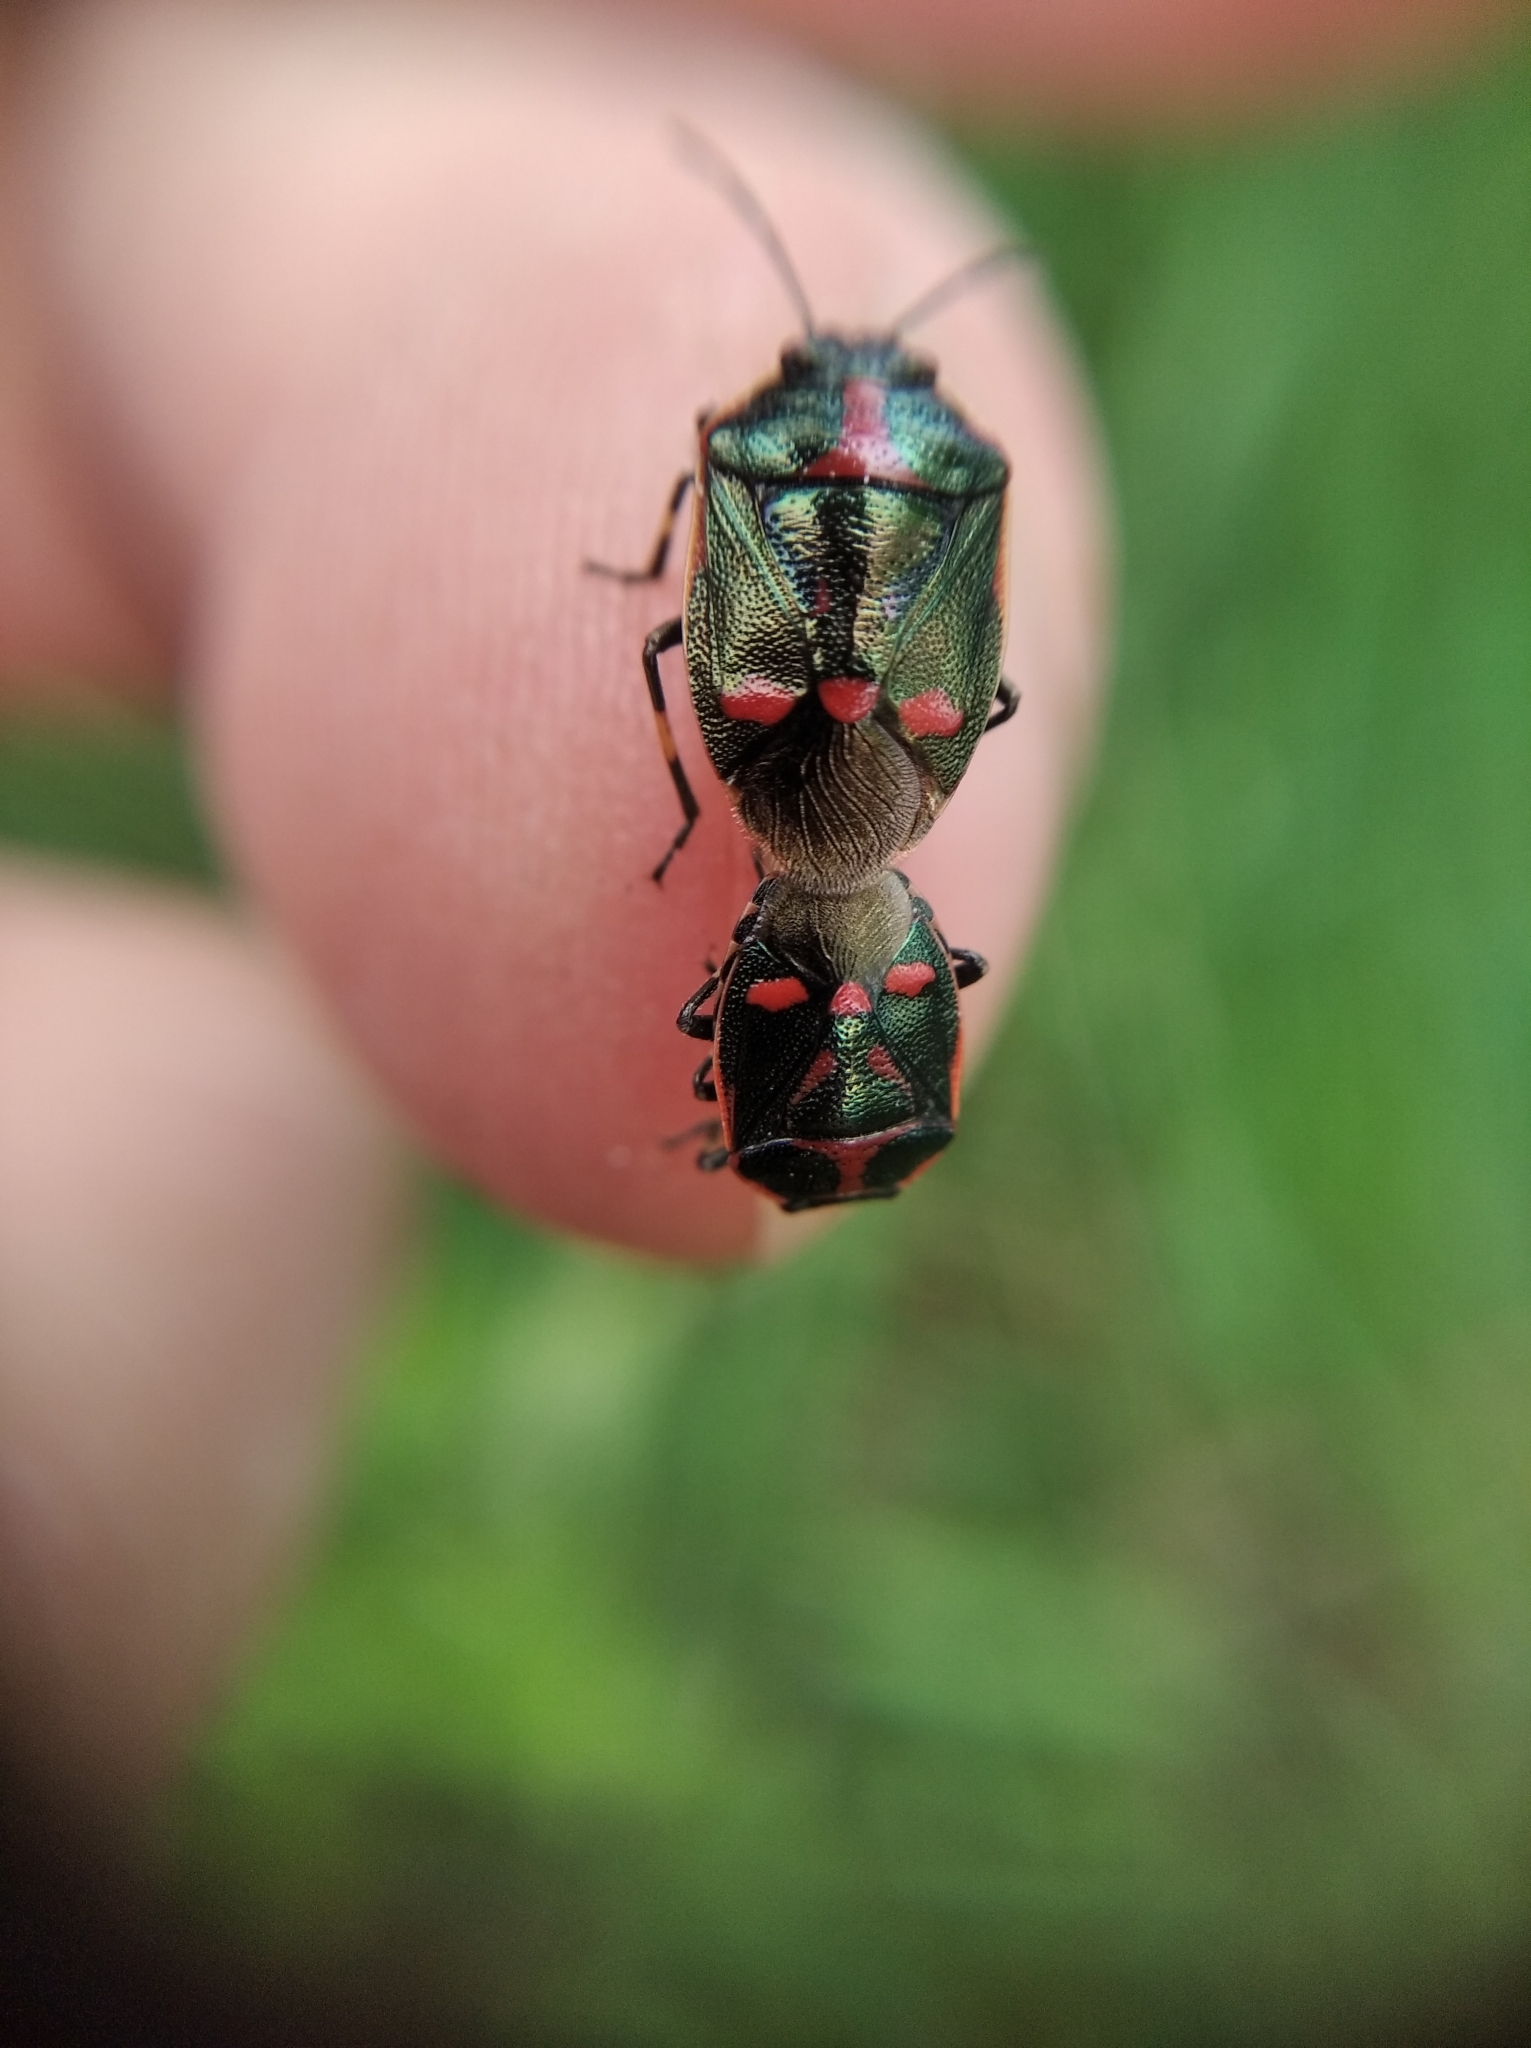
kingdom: Animalia
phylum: Arthropoda
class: Insecta
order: Hemiptera
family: Pentatomidae
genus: Eurydema
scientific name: Eurydema oleracea
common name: Cabbage bug
